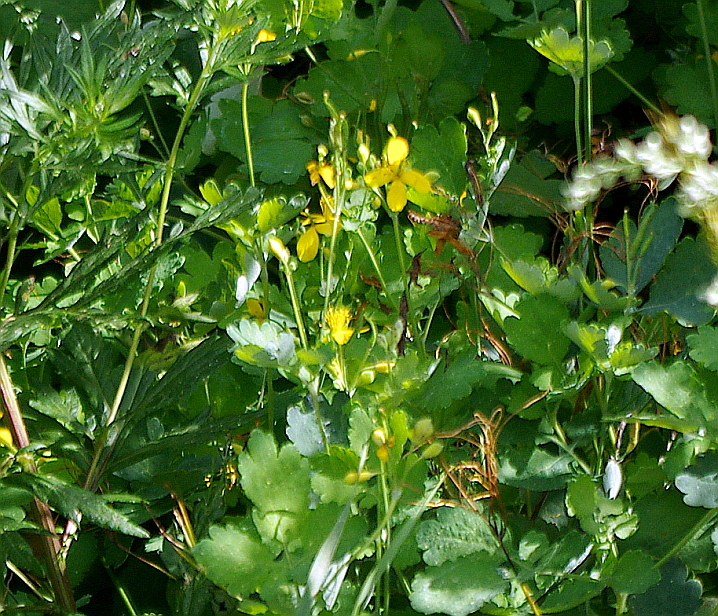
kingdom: Plantae
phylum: Tracheophyta
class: Magnoliopsida
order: Ranunculales
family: Papaveraceae
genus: Chelidonium
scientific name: Chelidonium majus
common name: Greater celandine
